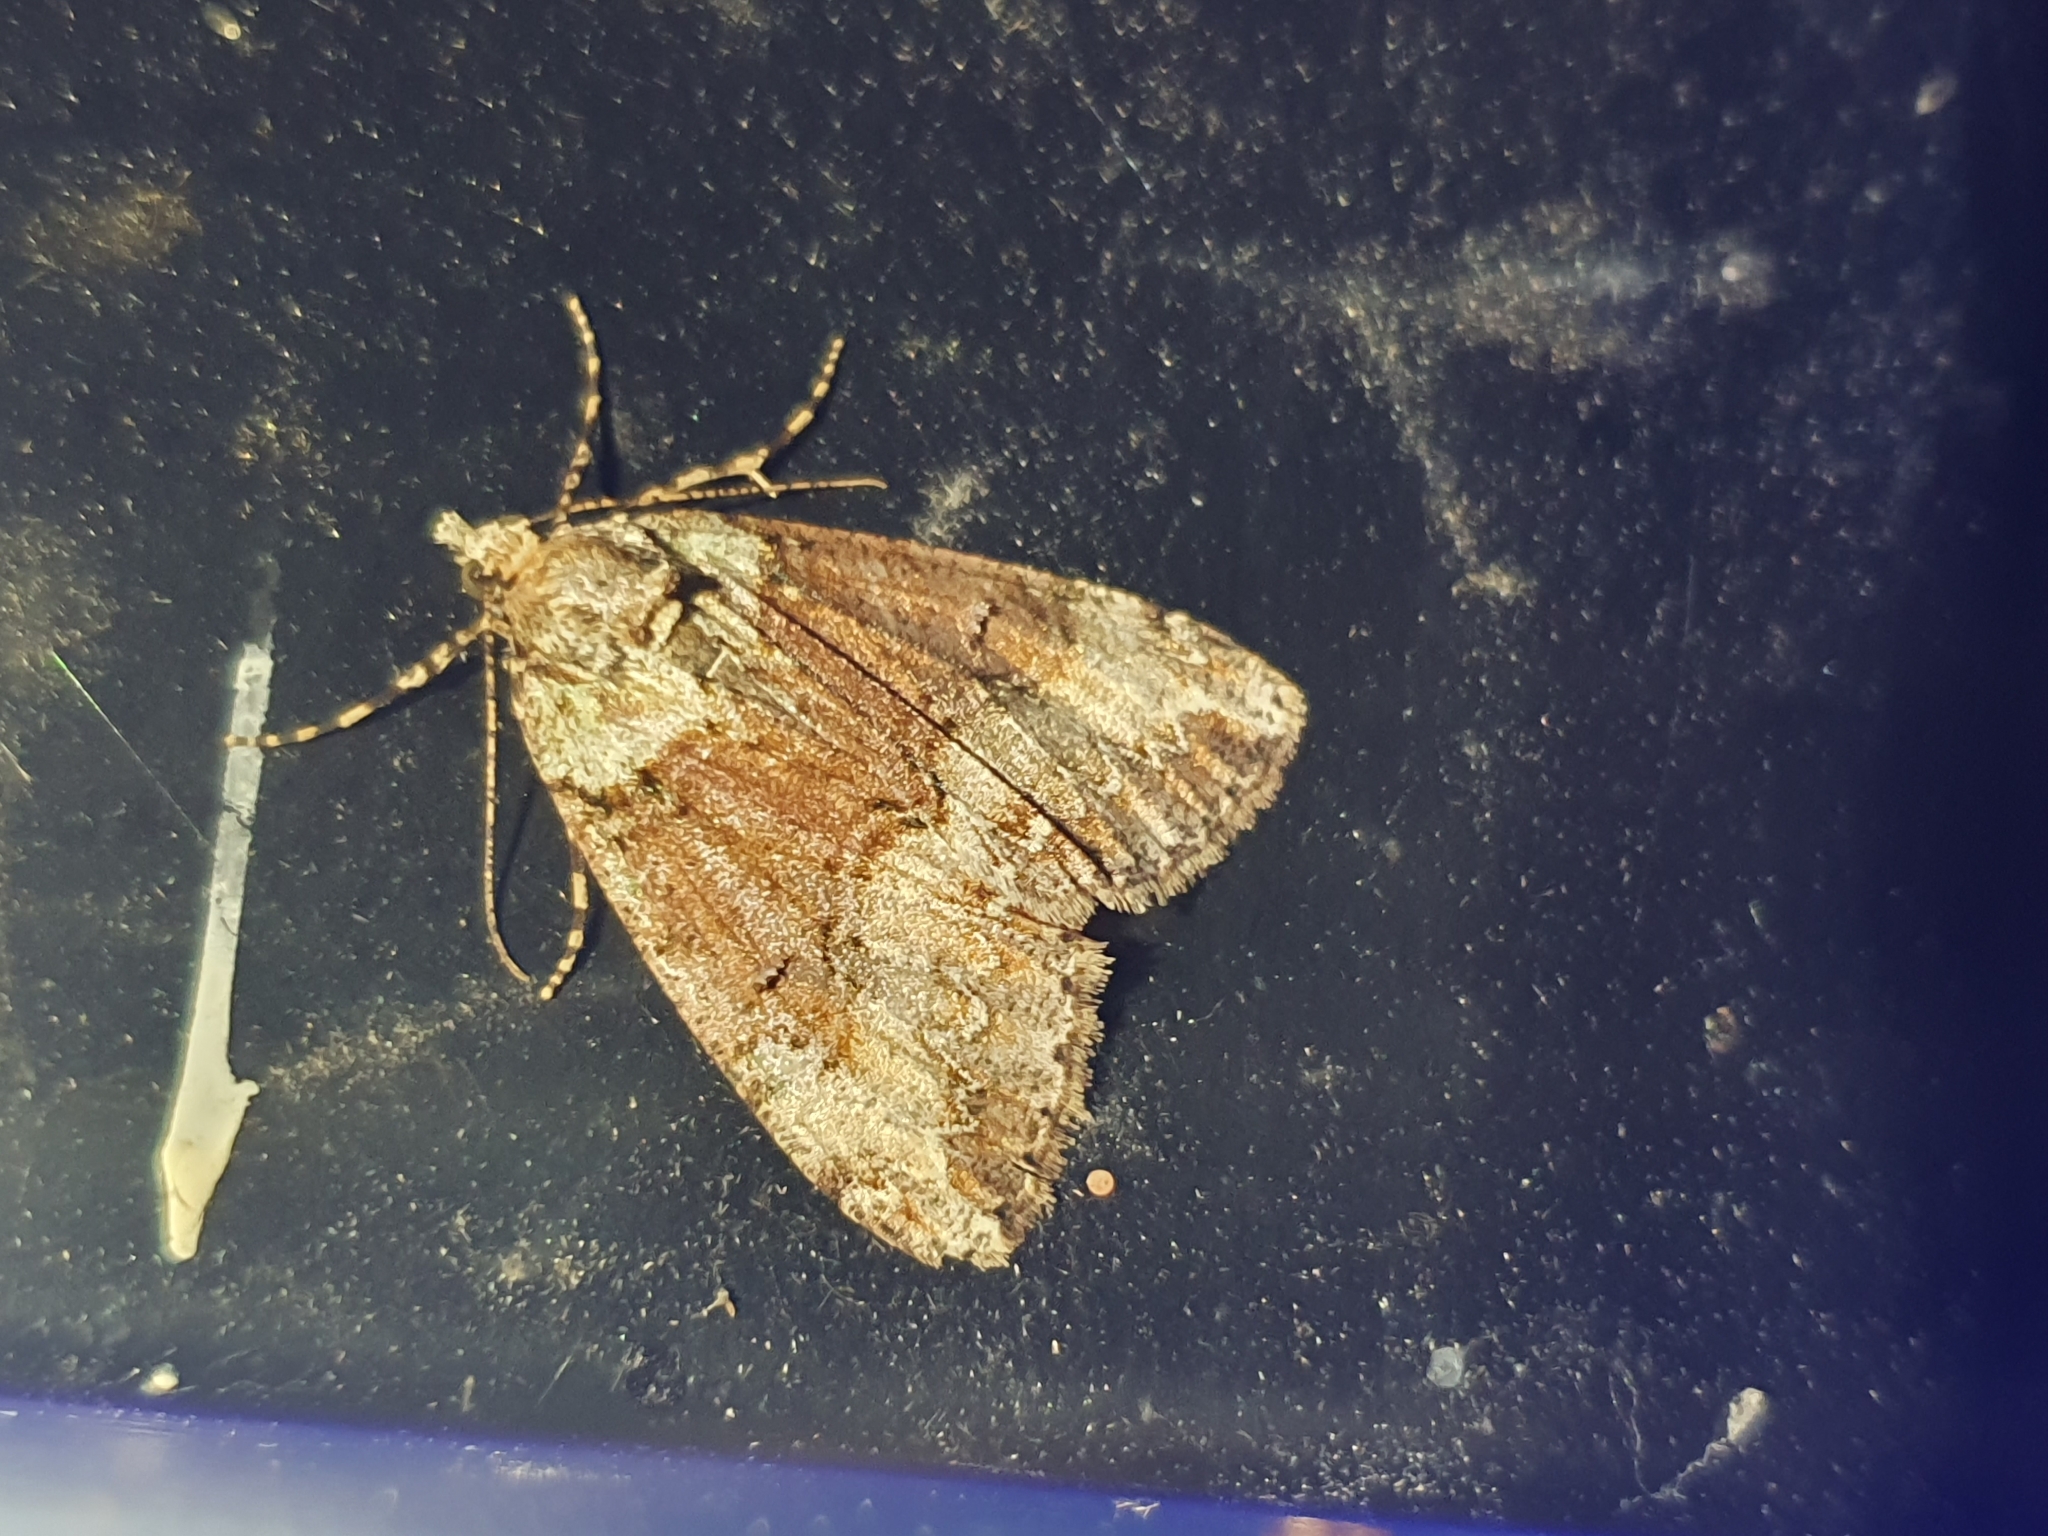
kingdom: Animalia
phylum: Arthropoda
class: Insecta
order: Lepidoptera
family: Geometridae
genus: Pseudocoremia
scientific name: Pseudocoremia suavis
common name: Common forest looper
